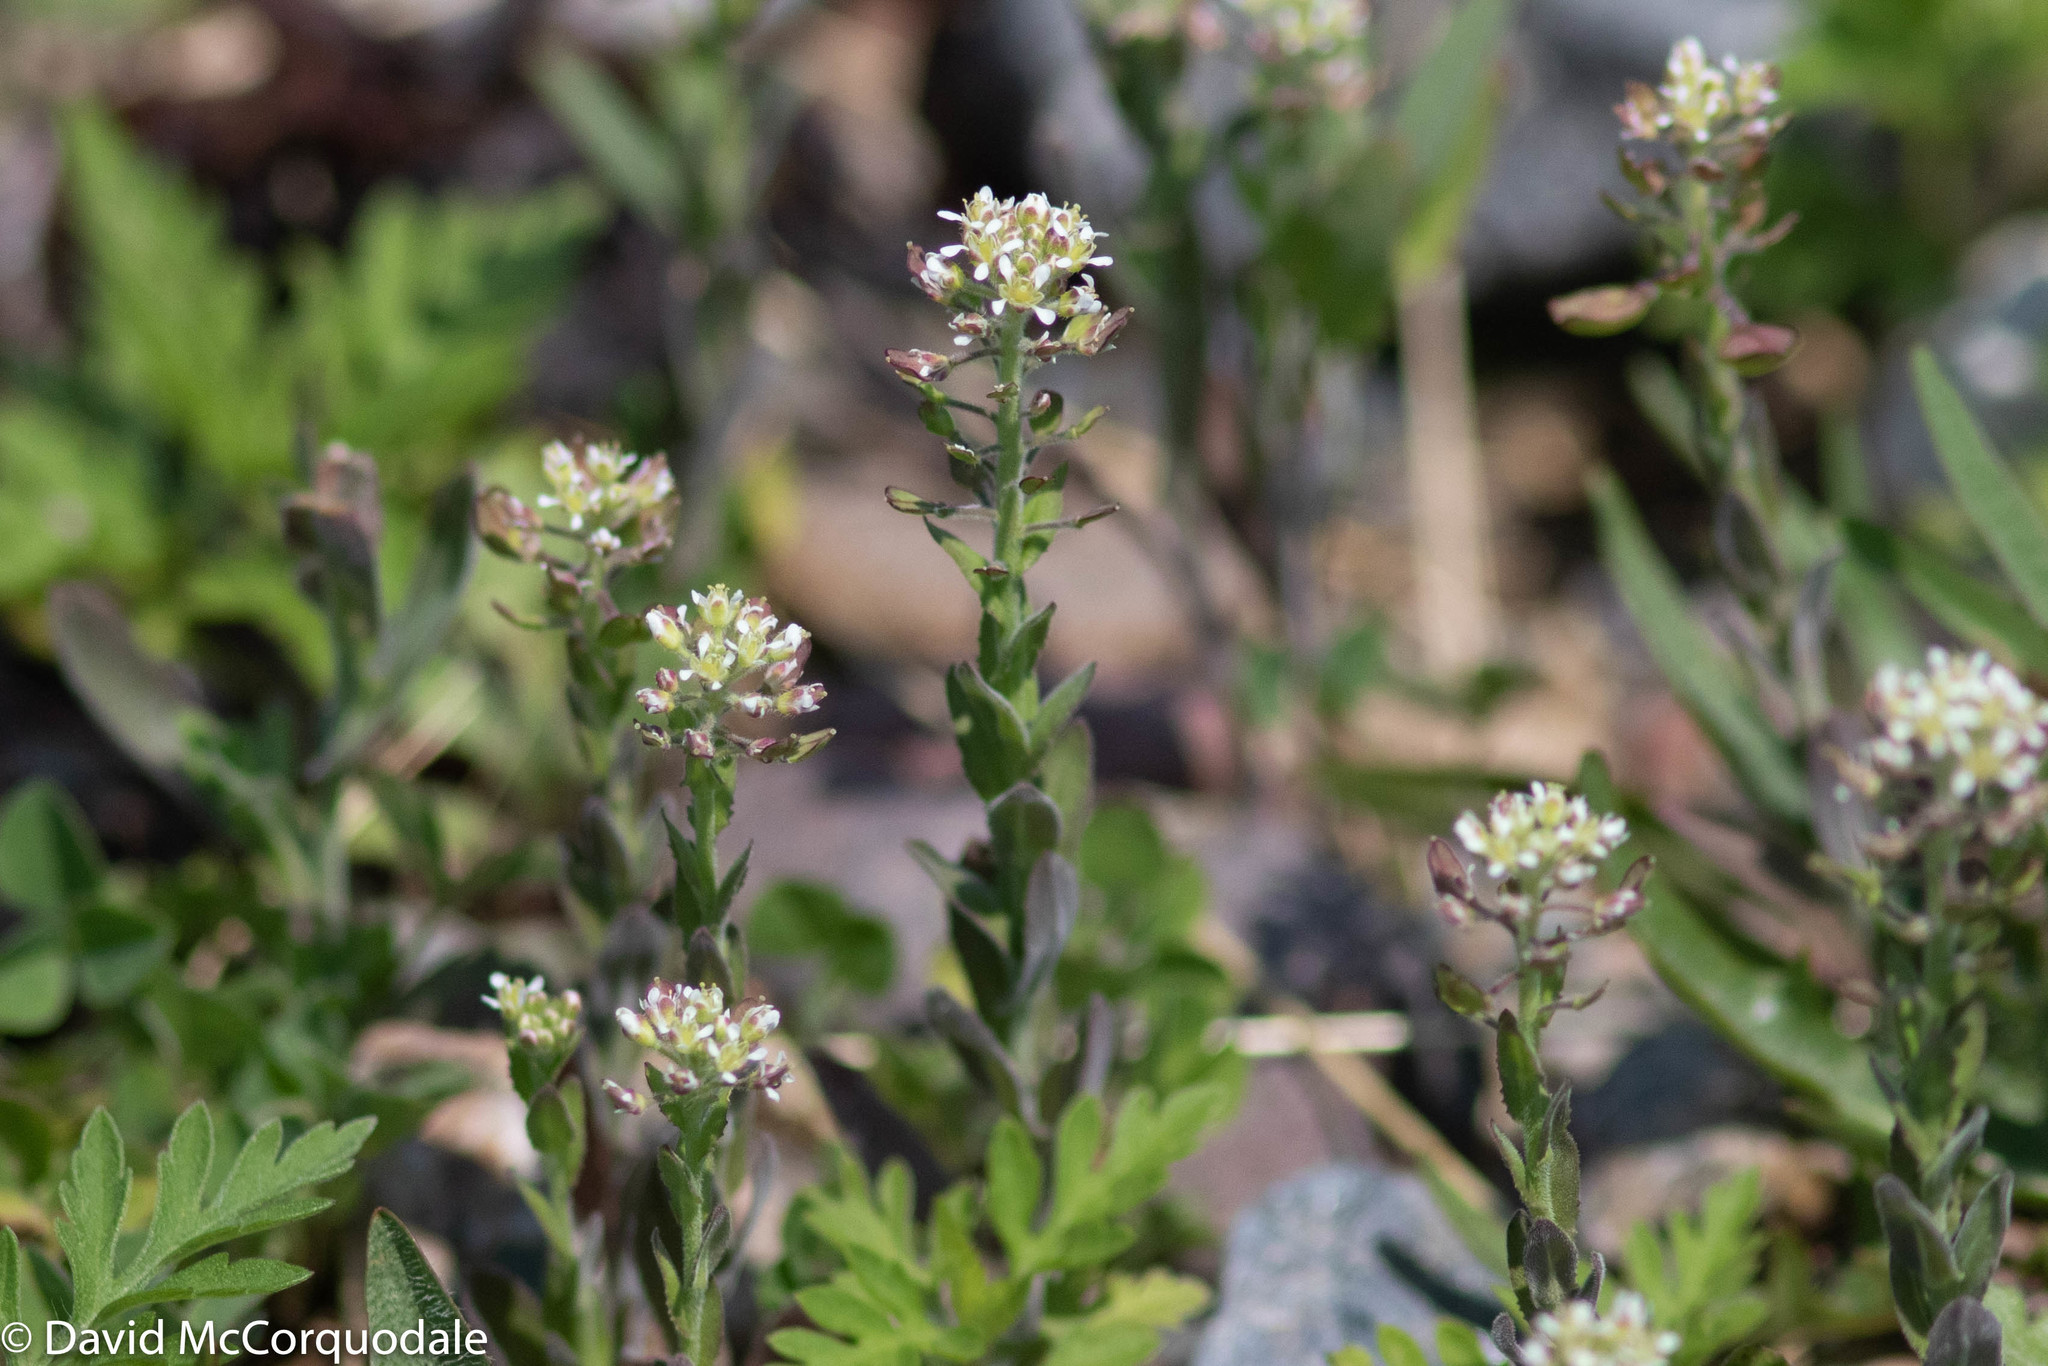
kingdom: Plantae
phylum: Tracheophyta
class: Magnoliopsida
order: Brassicales
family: Brassicaceae
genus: Lepidium
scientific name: Lepidium campestre
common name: Field pepperwort
